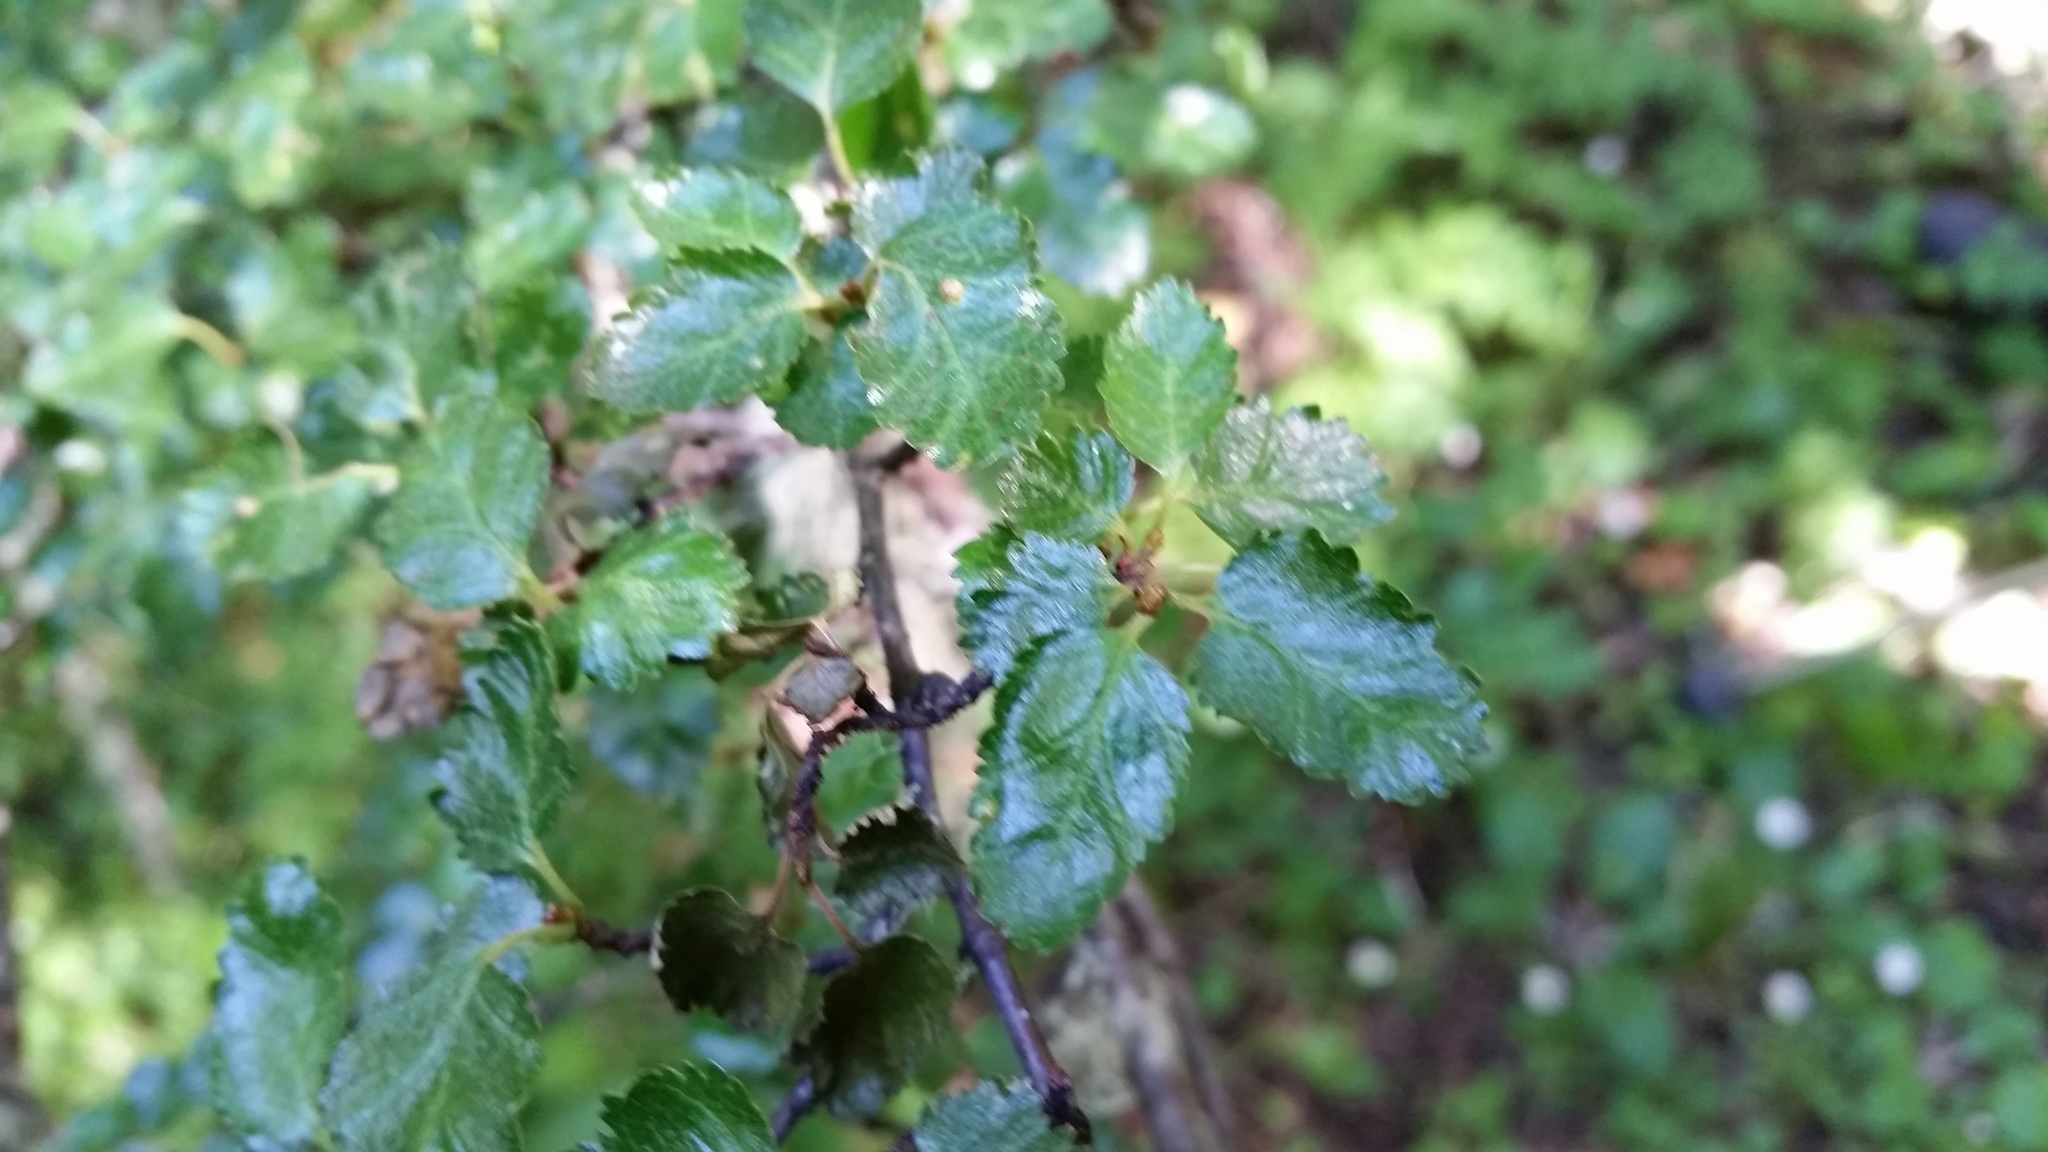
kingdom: Plantae
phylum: Tracheophyta
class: Magnoliopsida
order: Fagales
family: Nothofagaceae
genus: Nothofagus
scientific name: Nothofagus antarctica
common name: Antarctic beech
